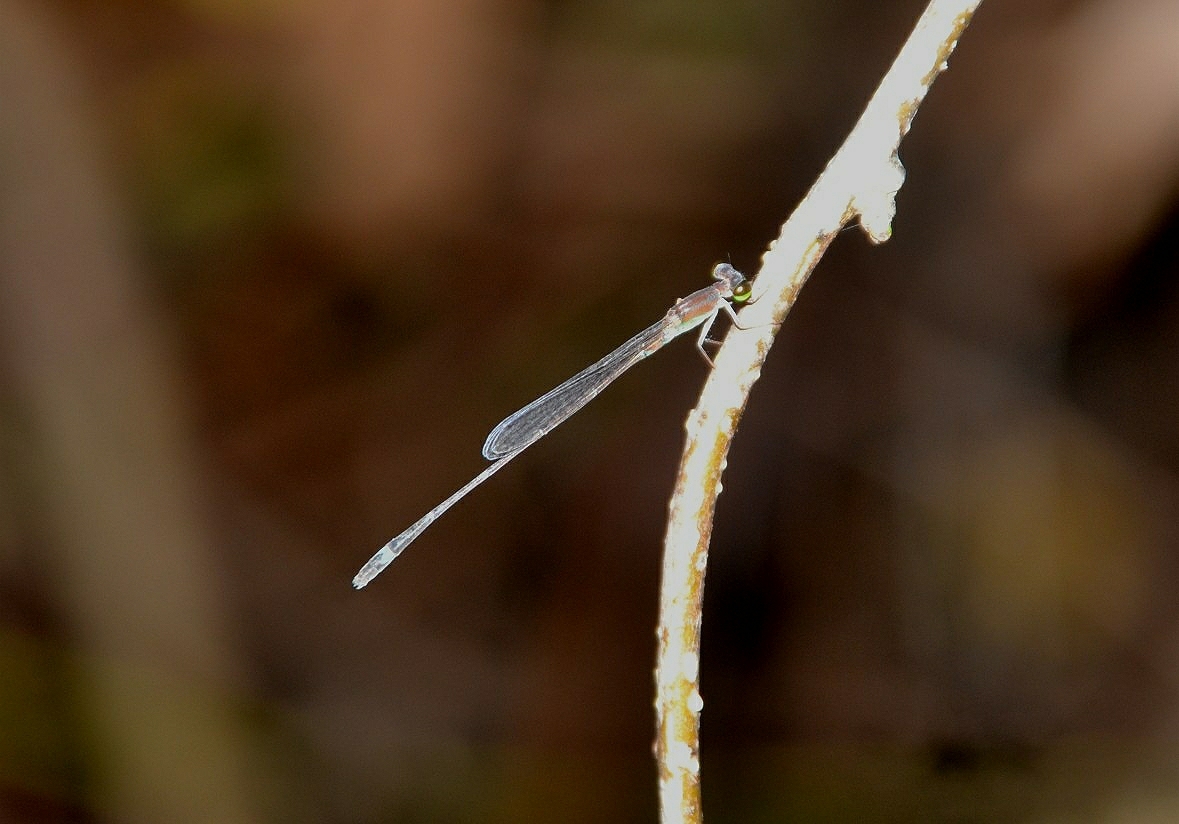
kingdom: Animalia
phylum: Arthropoda
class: Insecta
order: Odonata
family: Coenagrionidae
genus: Mortonagrion
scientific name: Mortonagrion varralli
